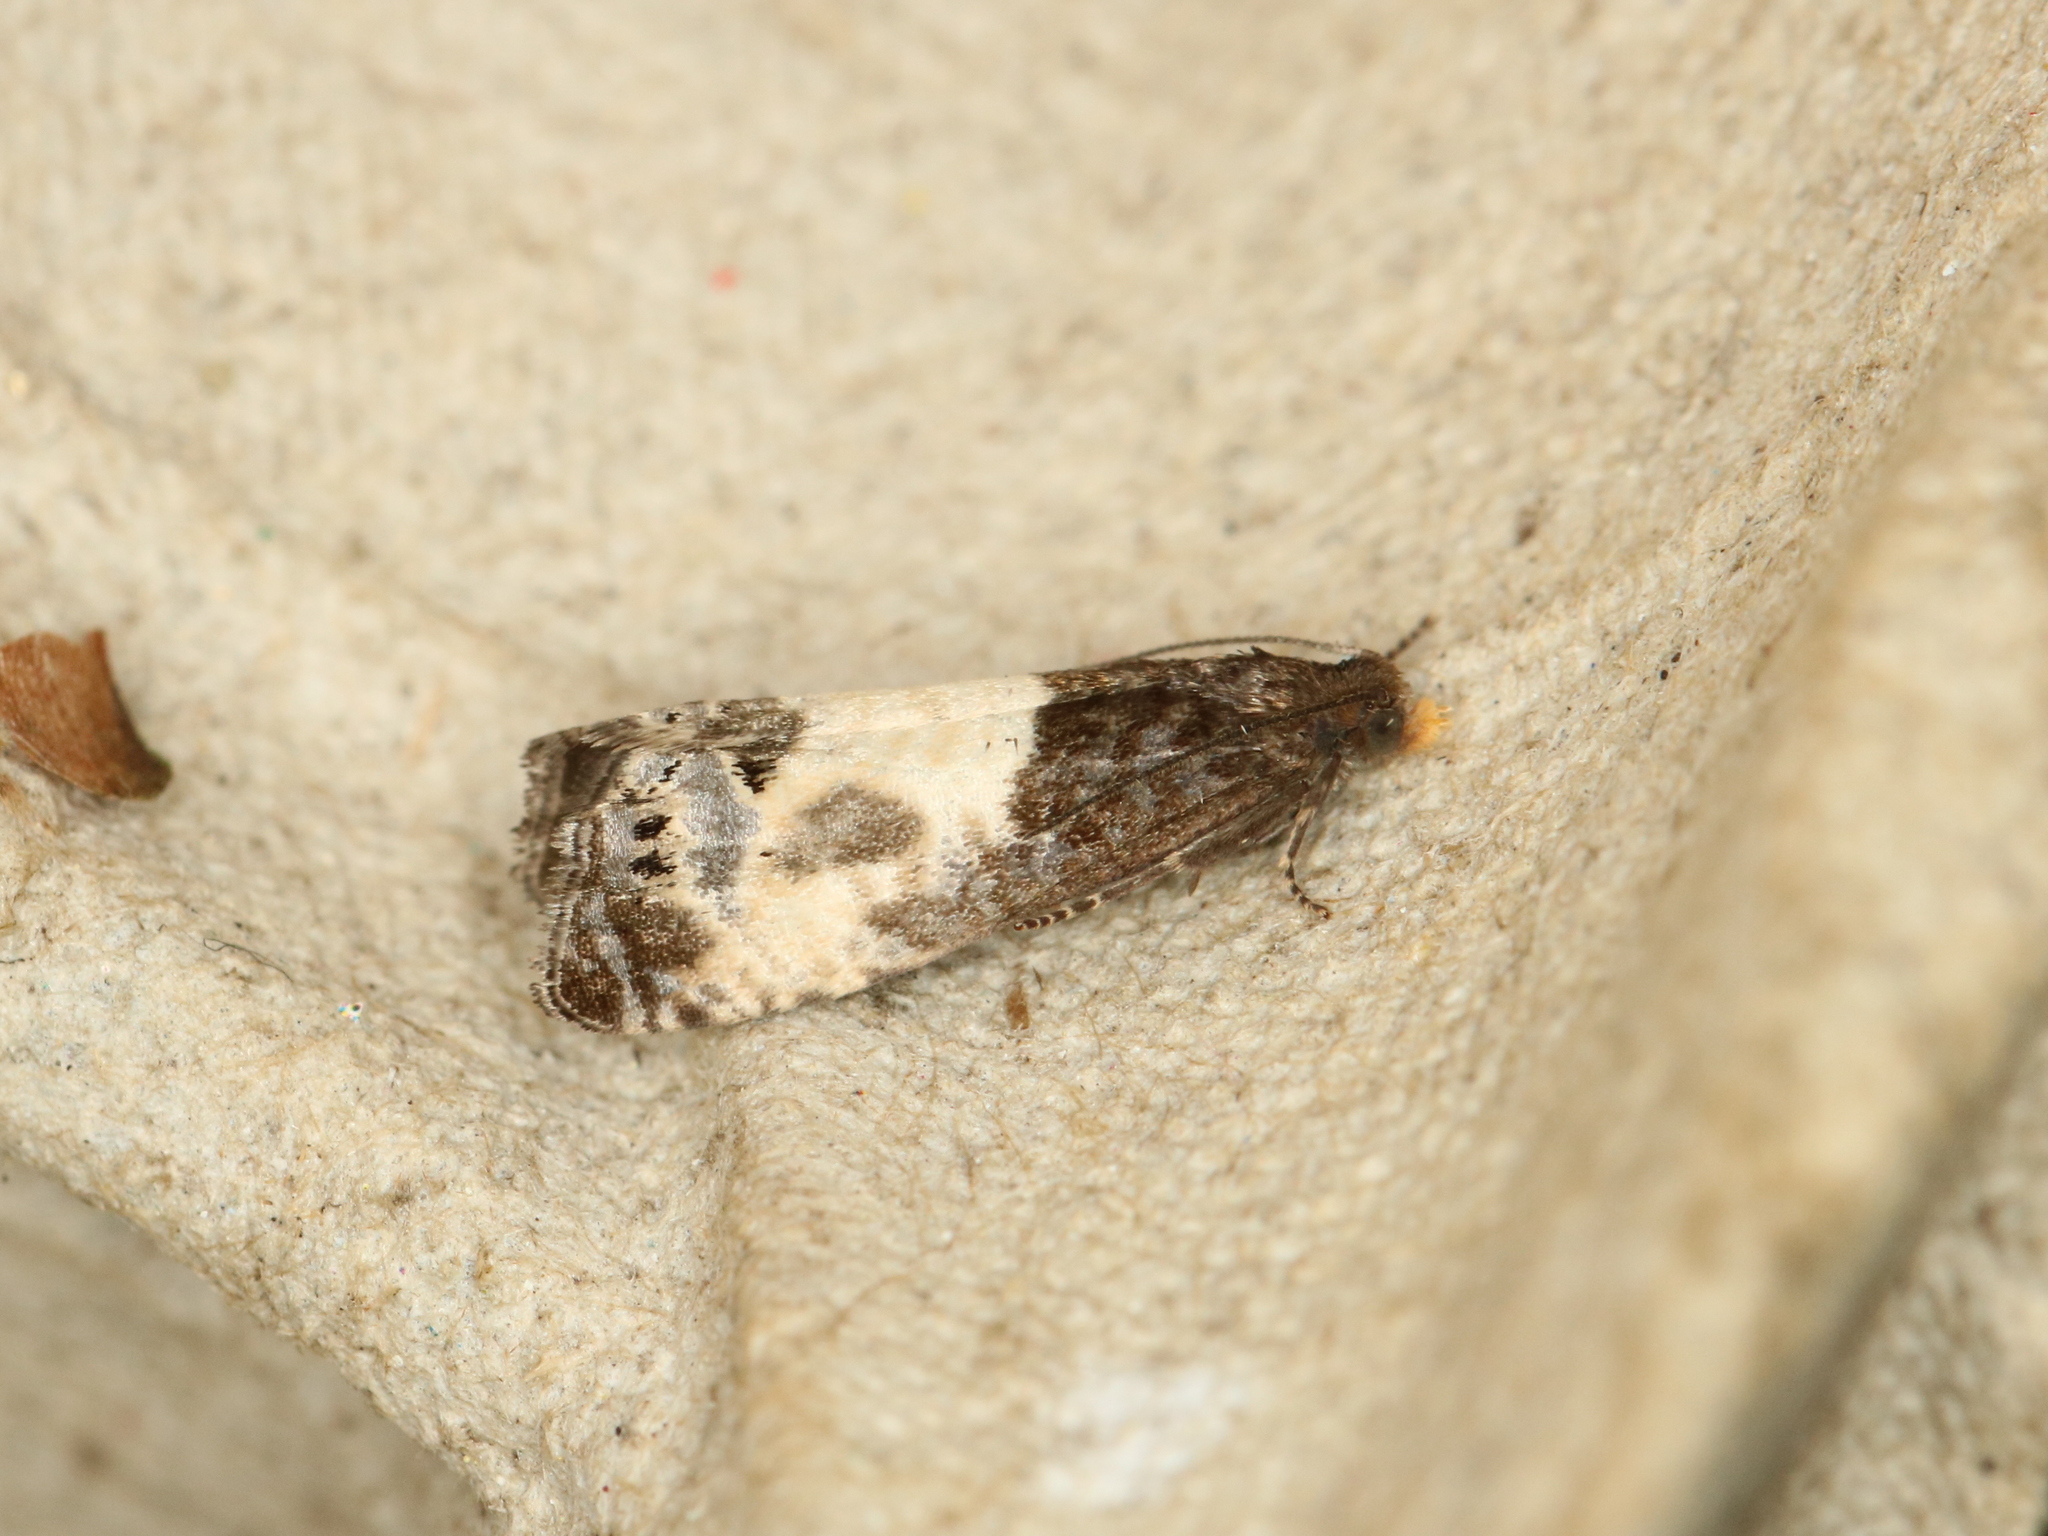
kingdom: Animalia
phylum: Arthropoda
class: Insecta
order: Lepidoptera
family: Tortricidae
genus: Notocelia
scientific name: Notocelia cynosbatella
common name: Yellow-faced bell moth
